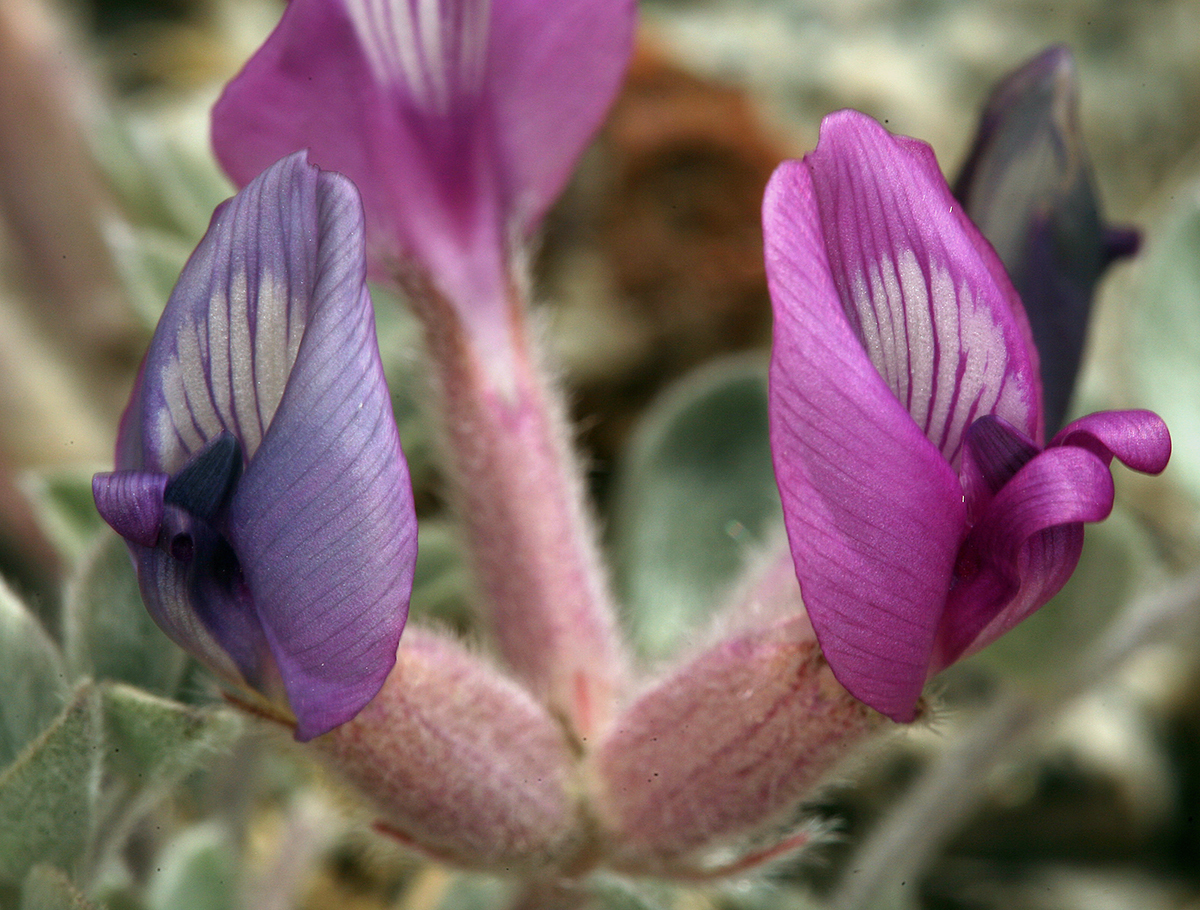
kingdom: Plantae
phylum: Tracheophyta
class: Magnoliopsida
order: Fabales
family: Fabaceae
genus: Astragalus
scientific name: Astragalus newberryi
